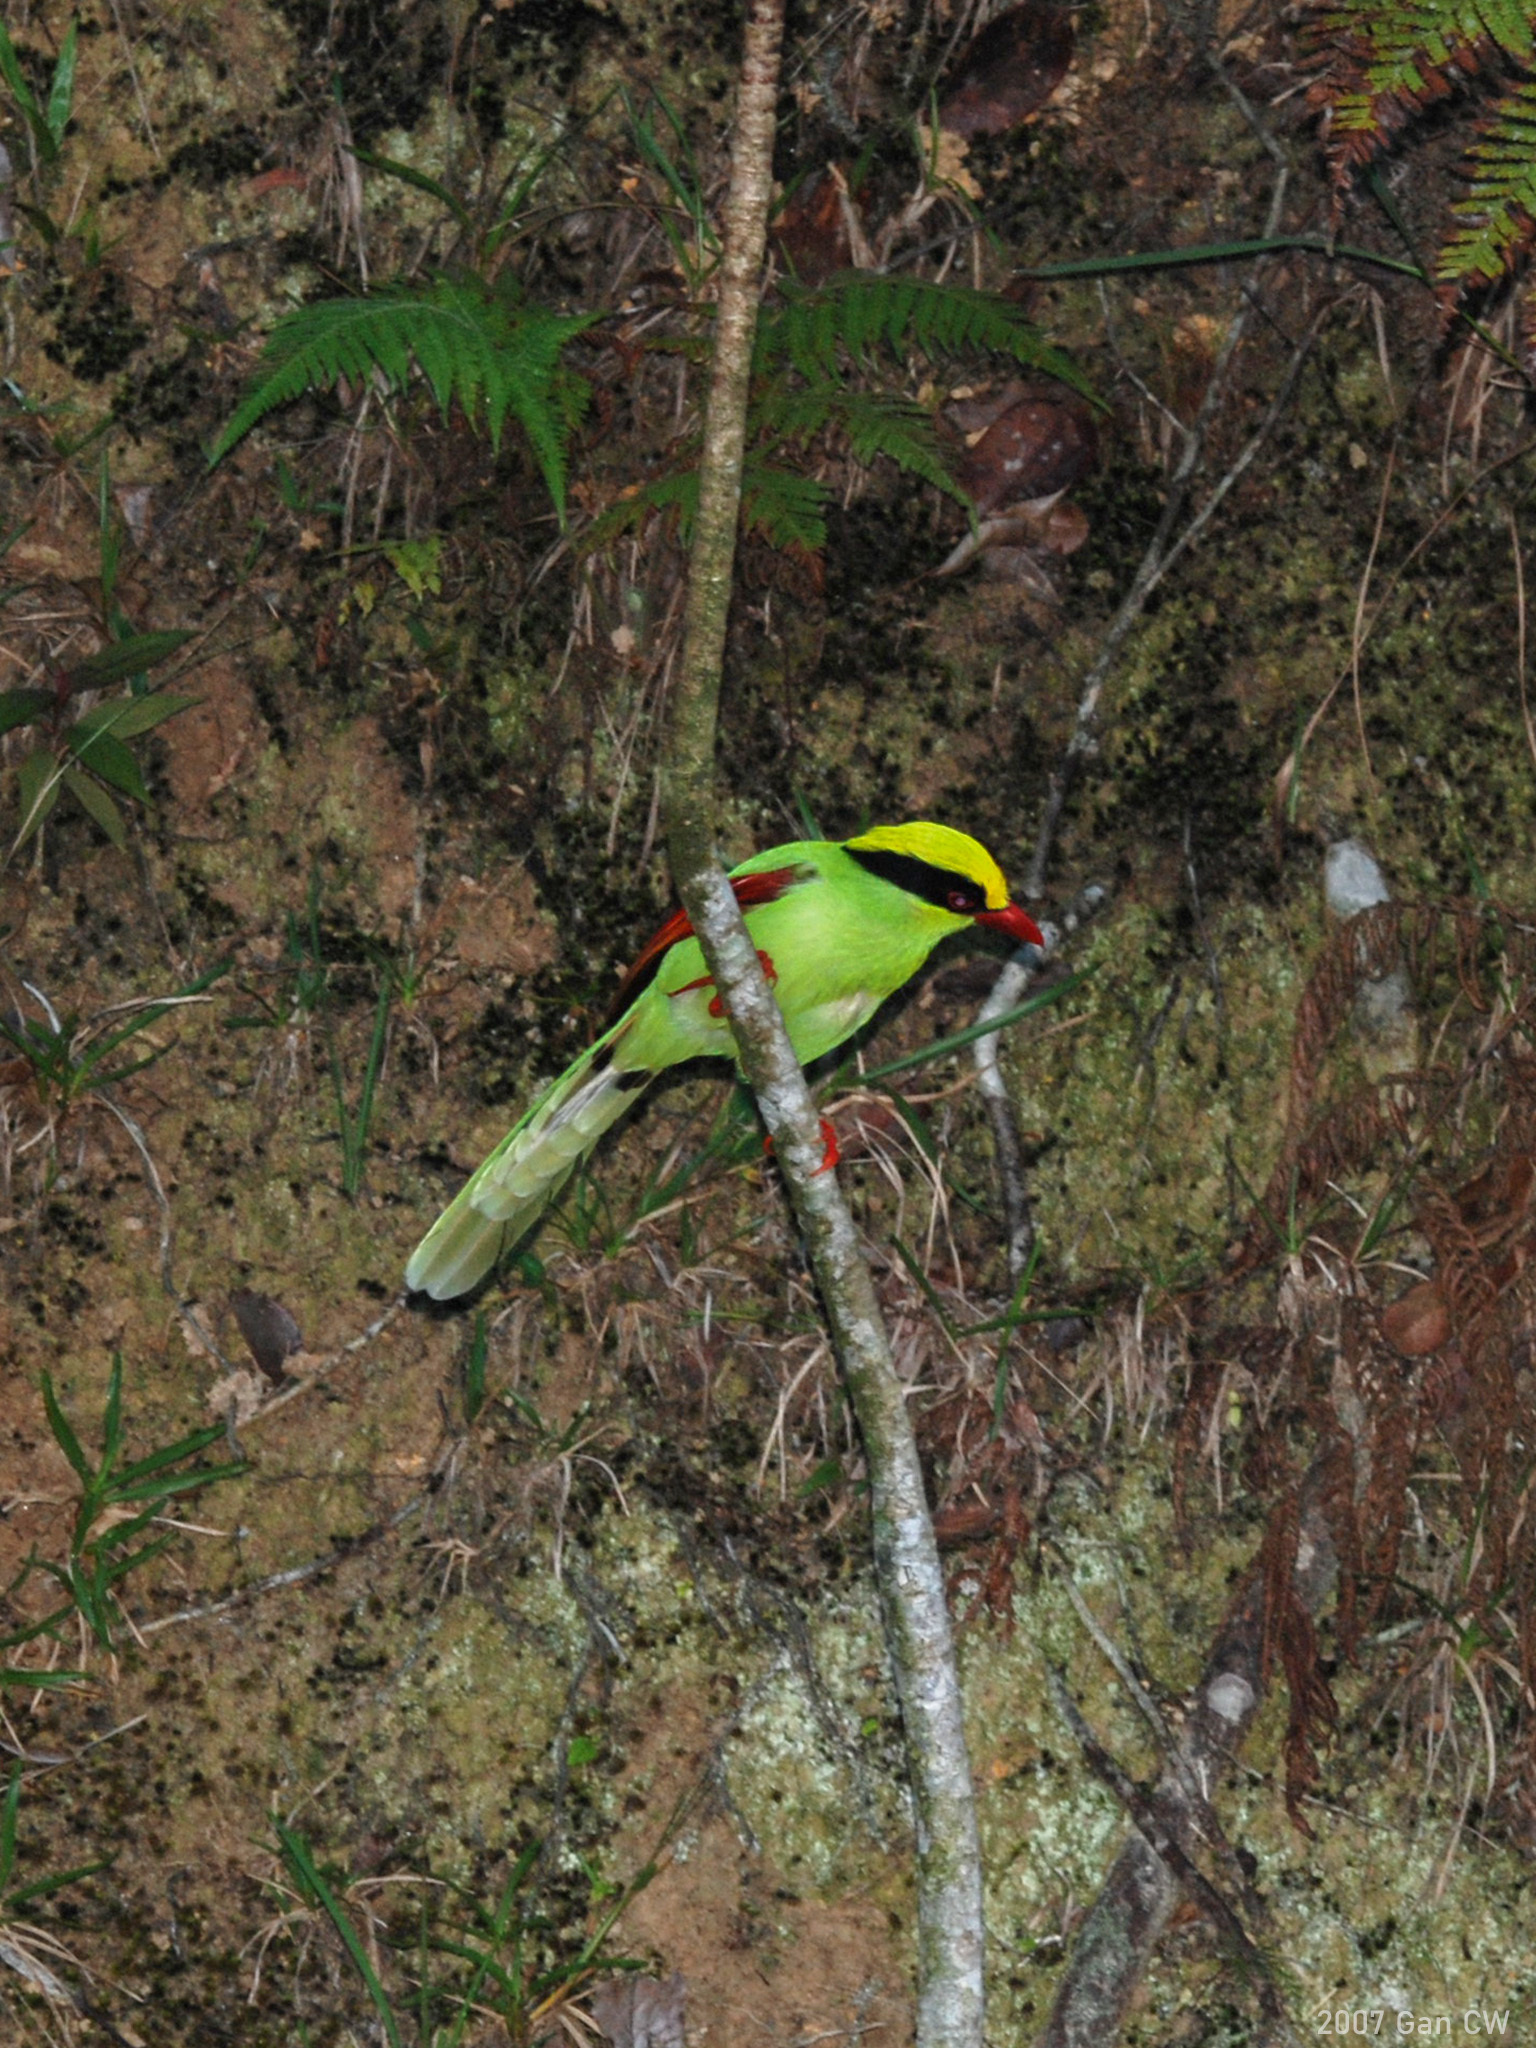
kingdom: Animalia
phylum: Chordata
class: Aves
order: Passeriformes
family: Corvidae
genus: Cissa
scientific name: Cissa chinensis
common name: Common green magpie
